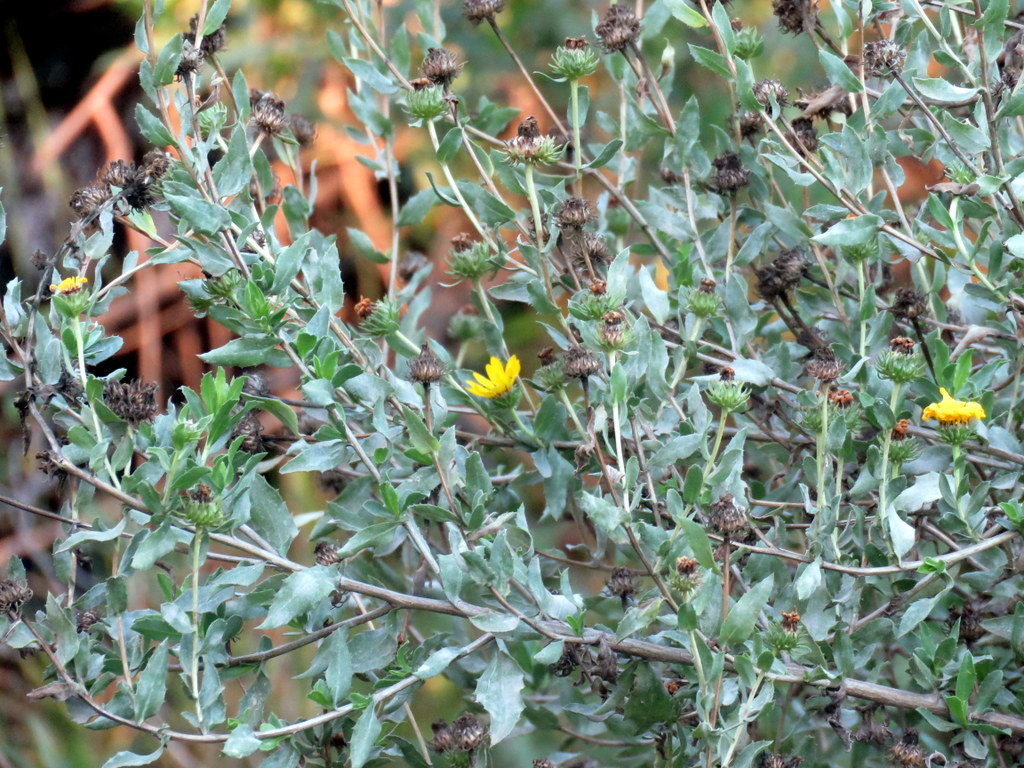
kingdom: Plantae
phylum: Tracheophyta
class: Magnoliopsida
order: Asterales
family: Asteraceae
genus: Grindelia
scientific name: Grindelia pulchella
